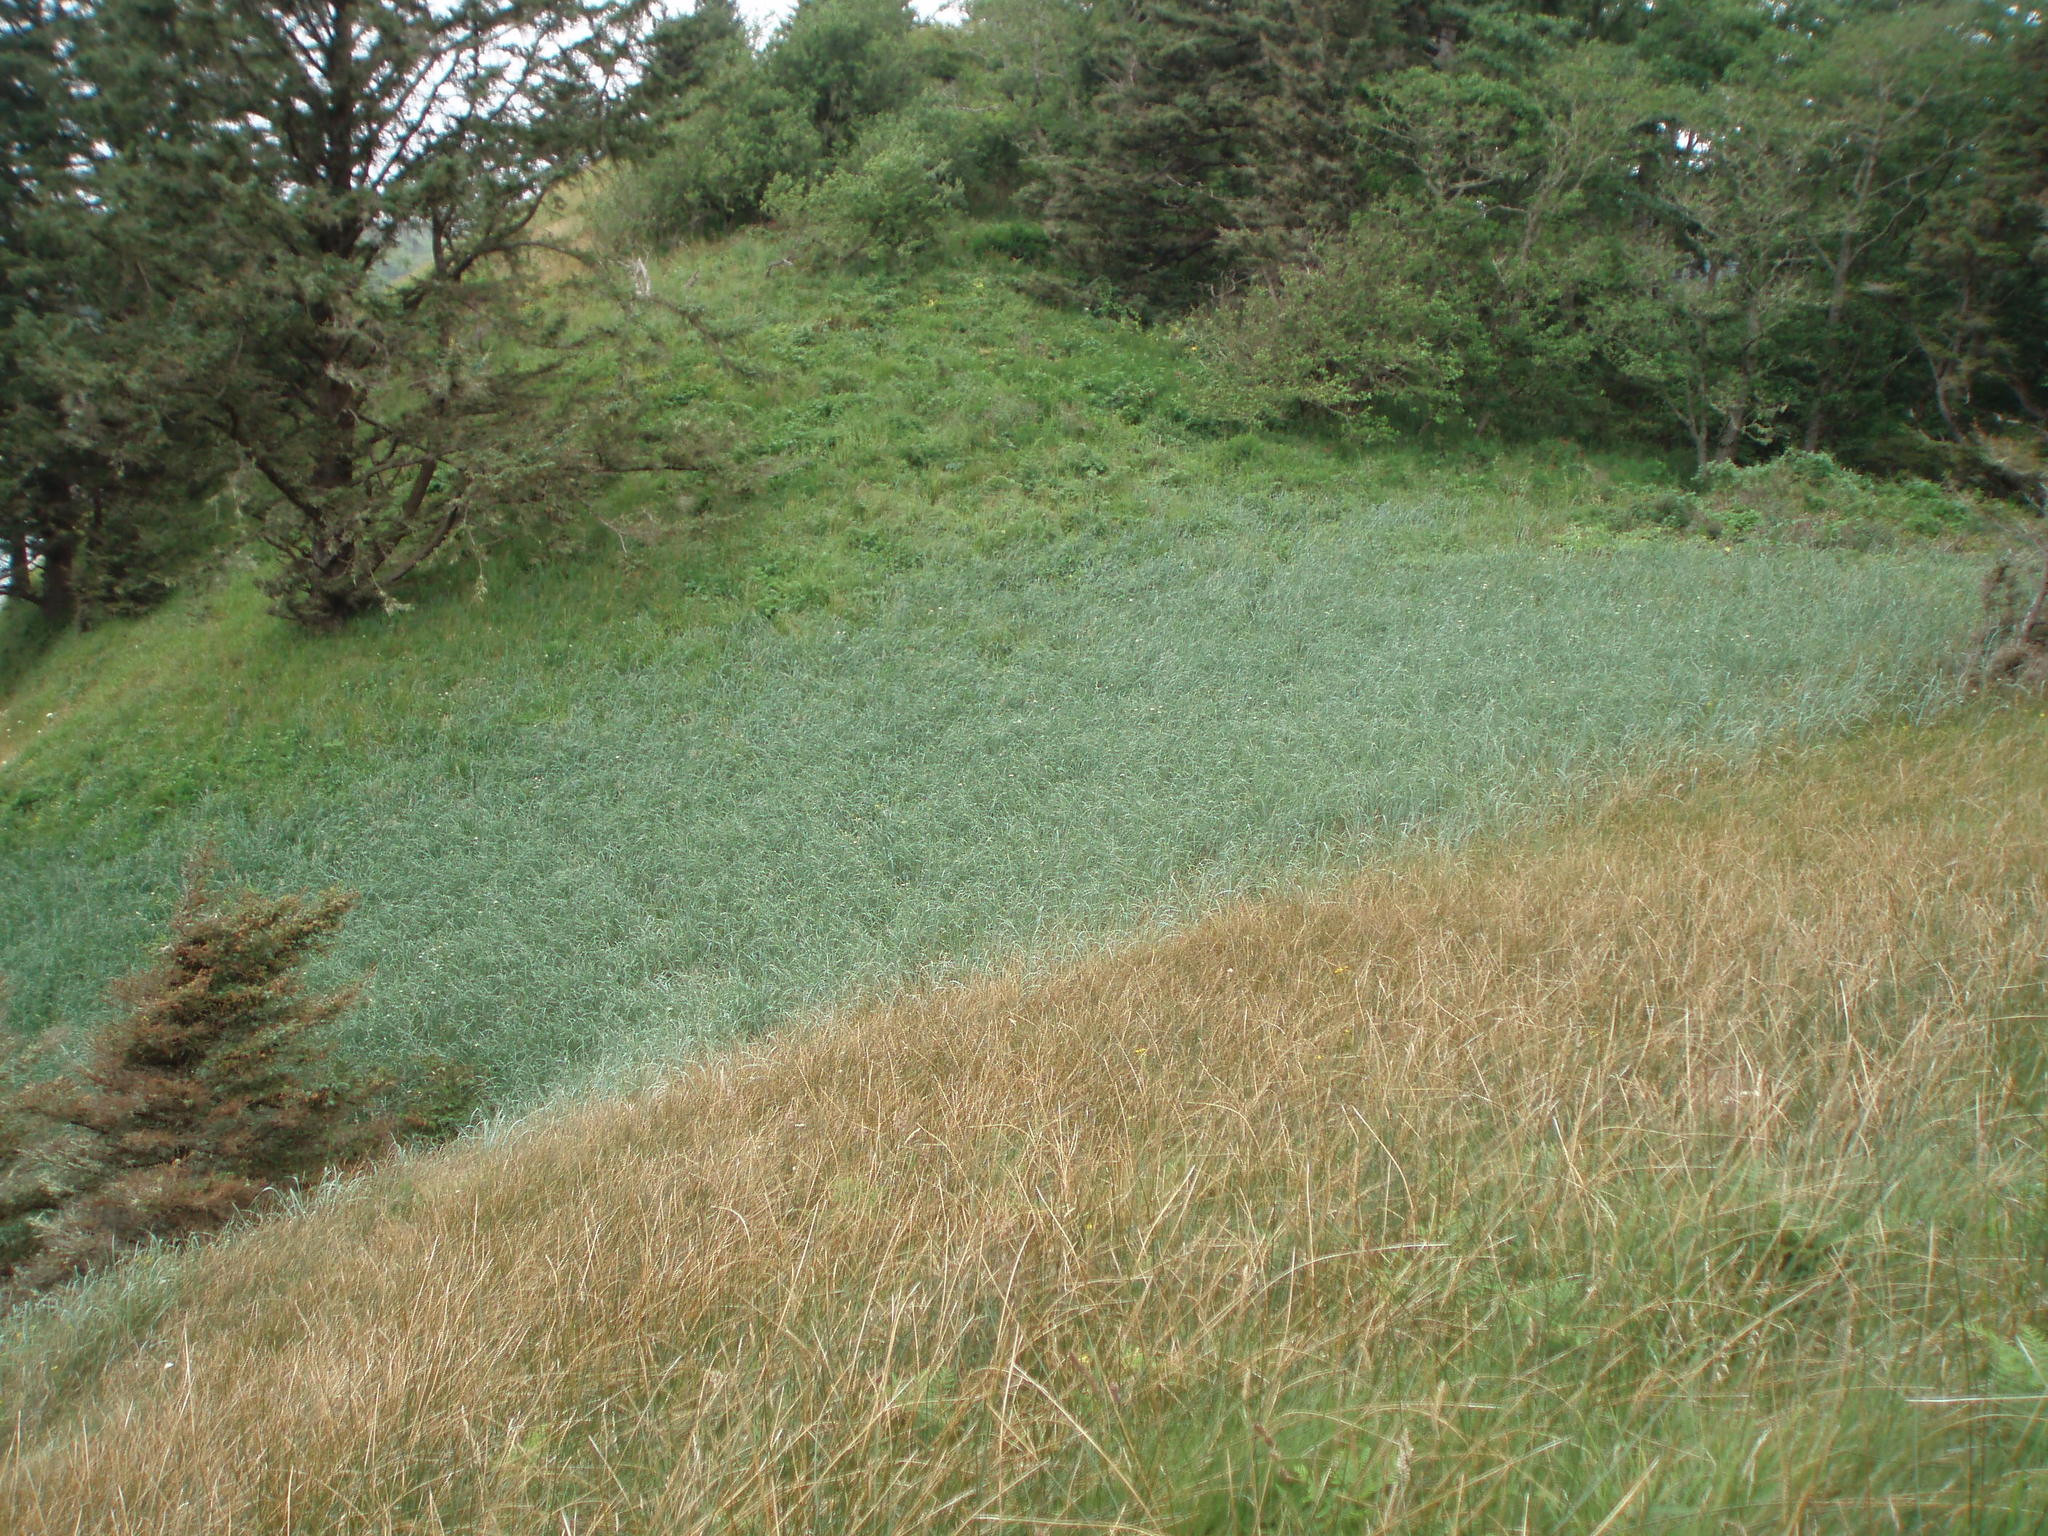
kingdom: Plantae
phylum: Tracheophyta
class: Liliopsida
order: Poales
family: Poaceae
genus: Leymus
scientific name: Leymus mollis
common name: American dune grass
